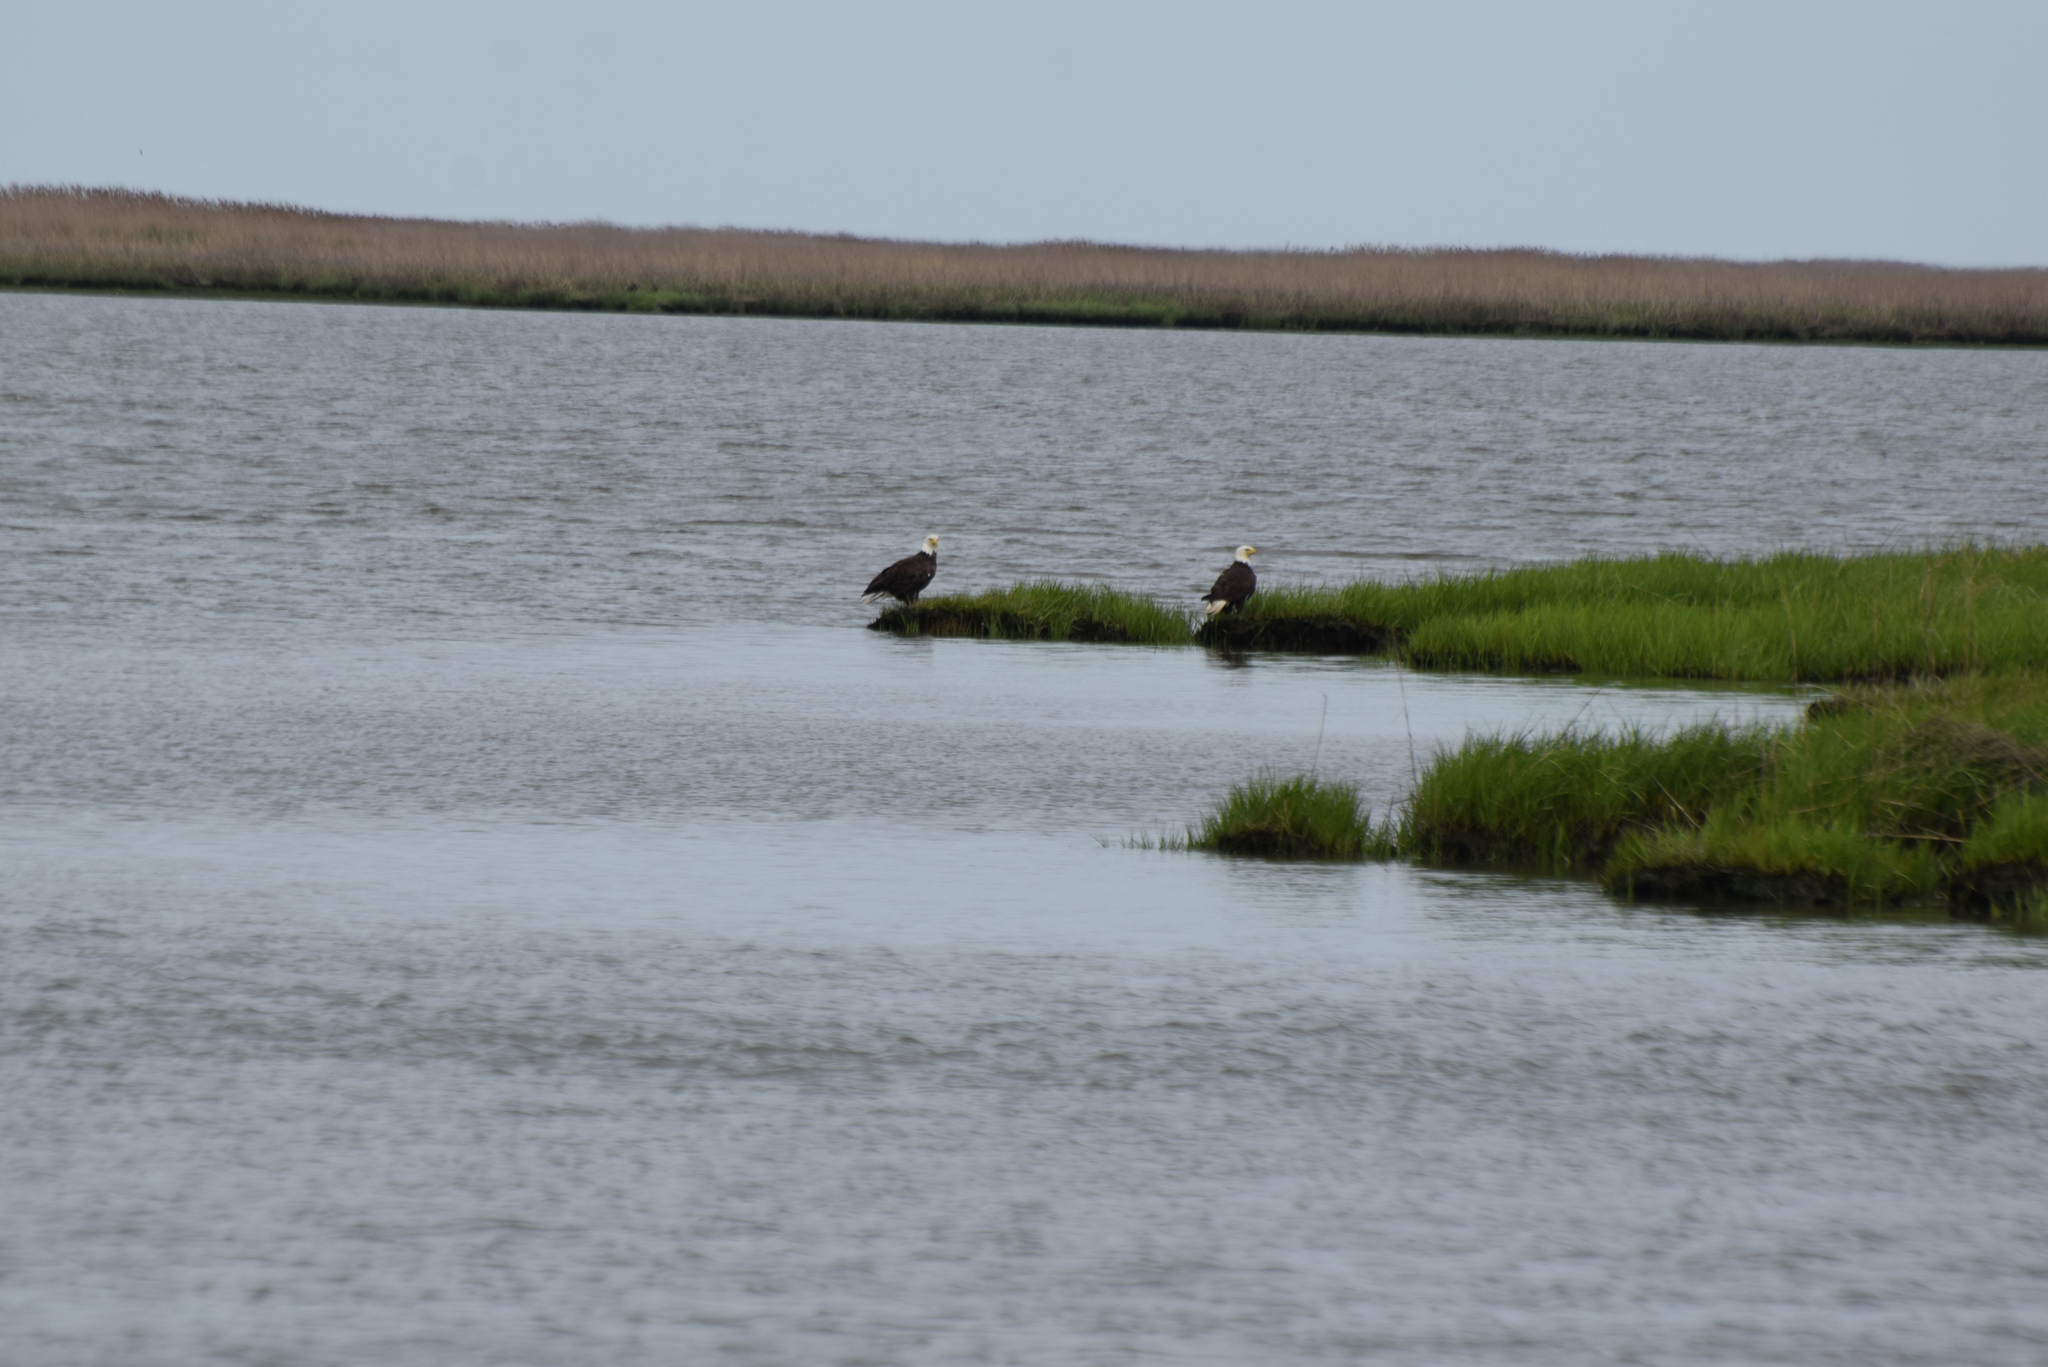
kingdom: Animalia
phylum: Chordata
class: Aves
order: Accipitriformes
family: Accipitridae
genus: Haliaeetus
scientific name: Haliaeetus leucocephalus
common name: Bald eagle
